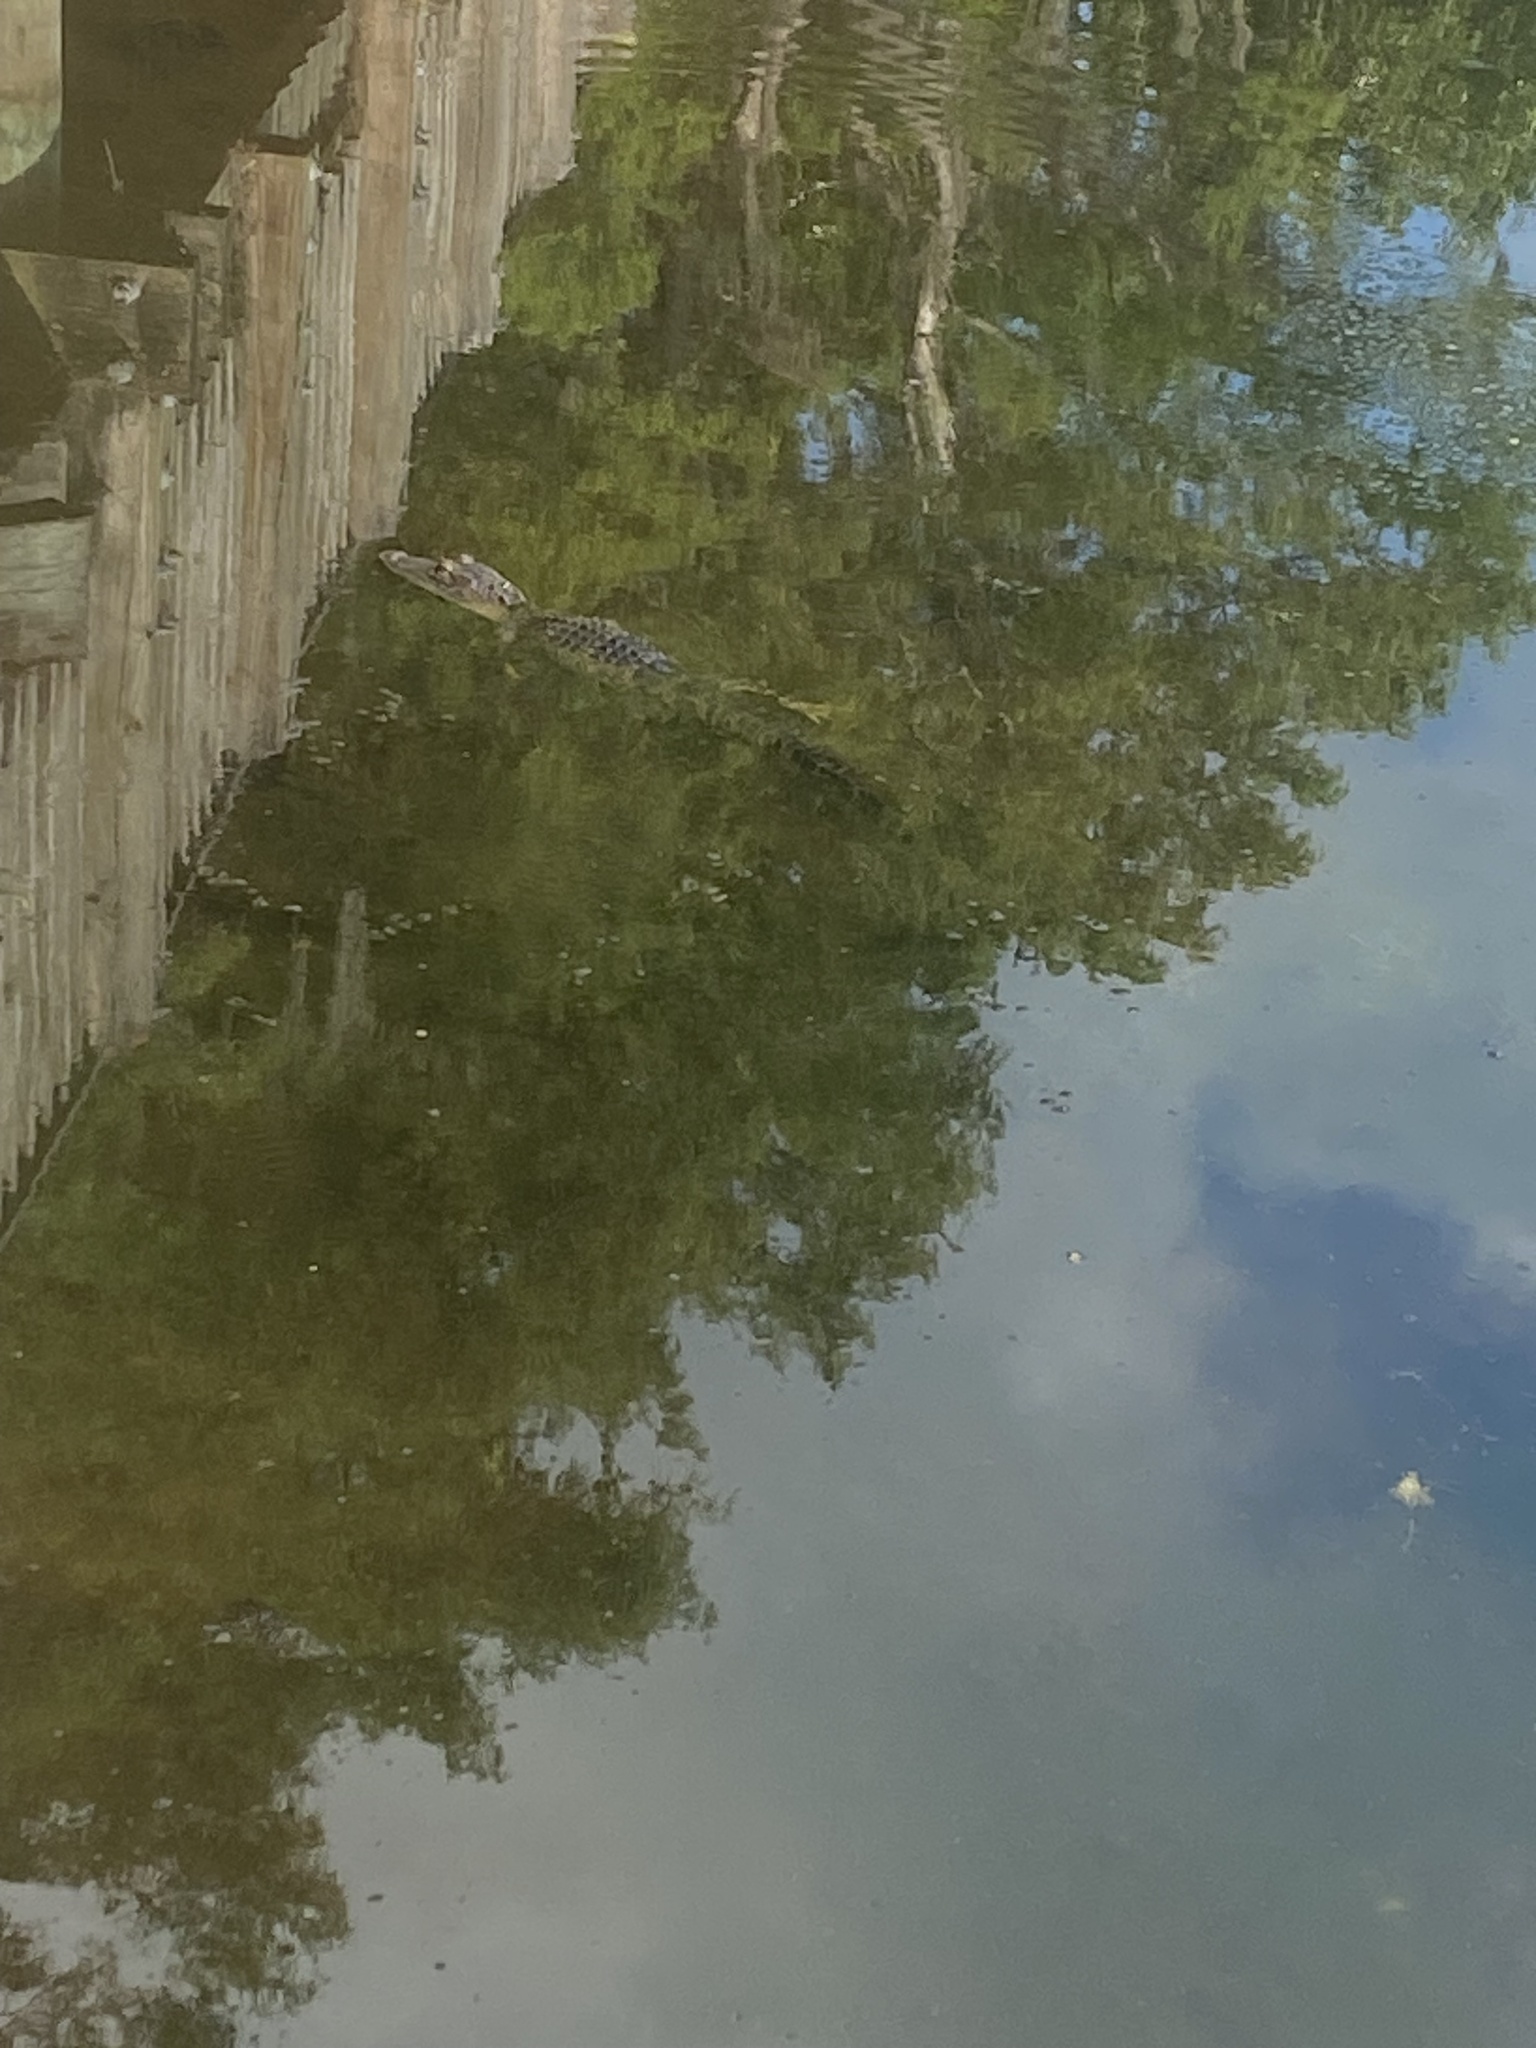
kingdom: Animalia
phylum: Chordata
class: Crocodylia
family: Alligatoridae
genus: Alligator
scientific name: Alligator mississippiensis
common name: American alligator
